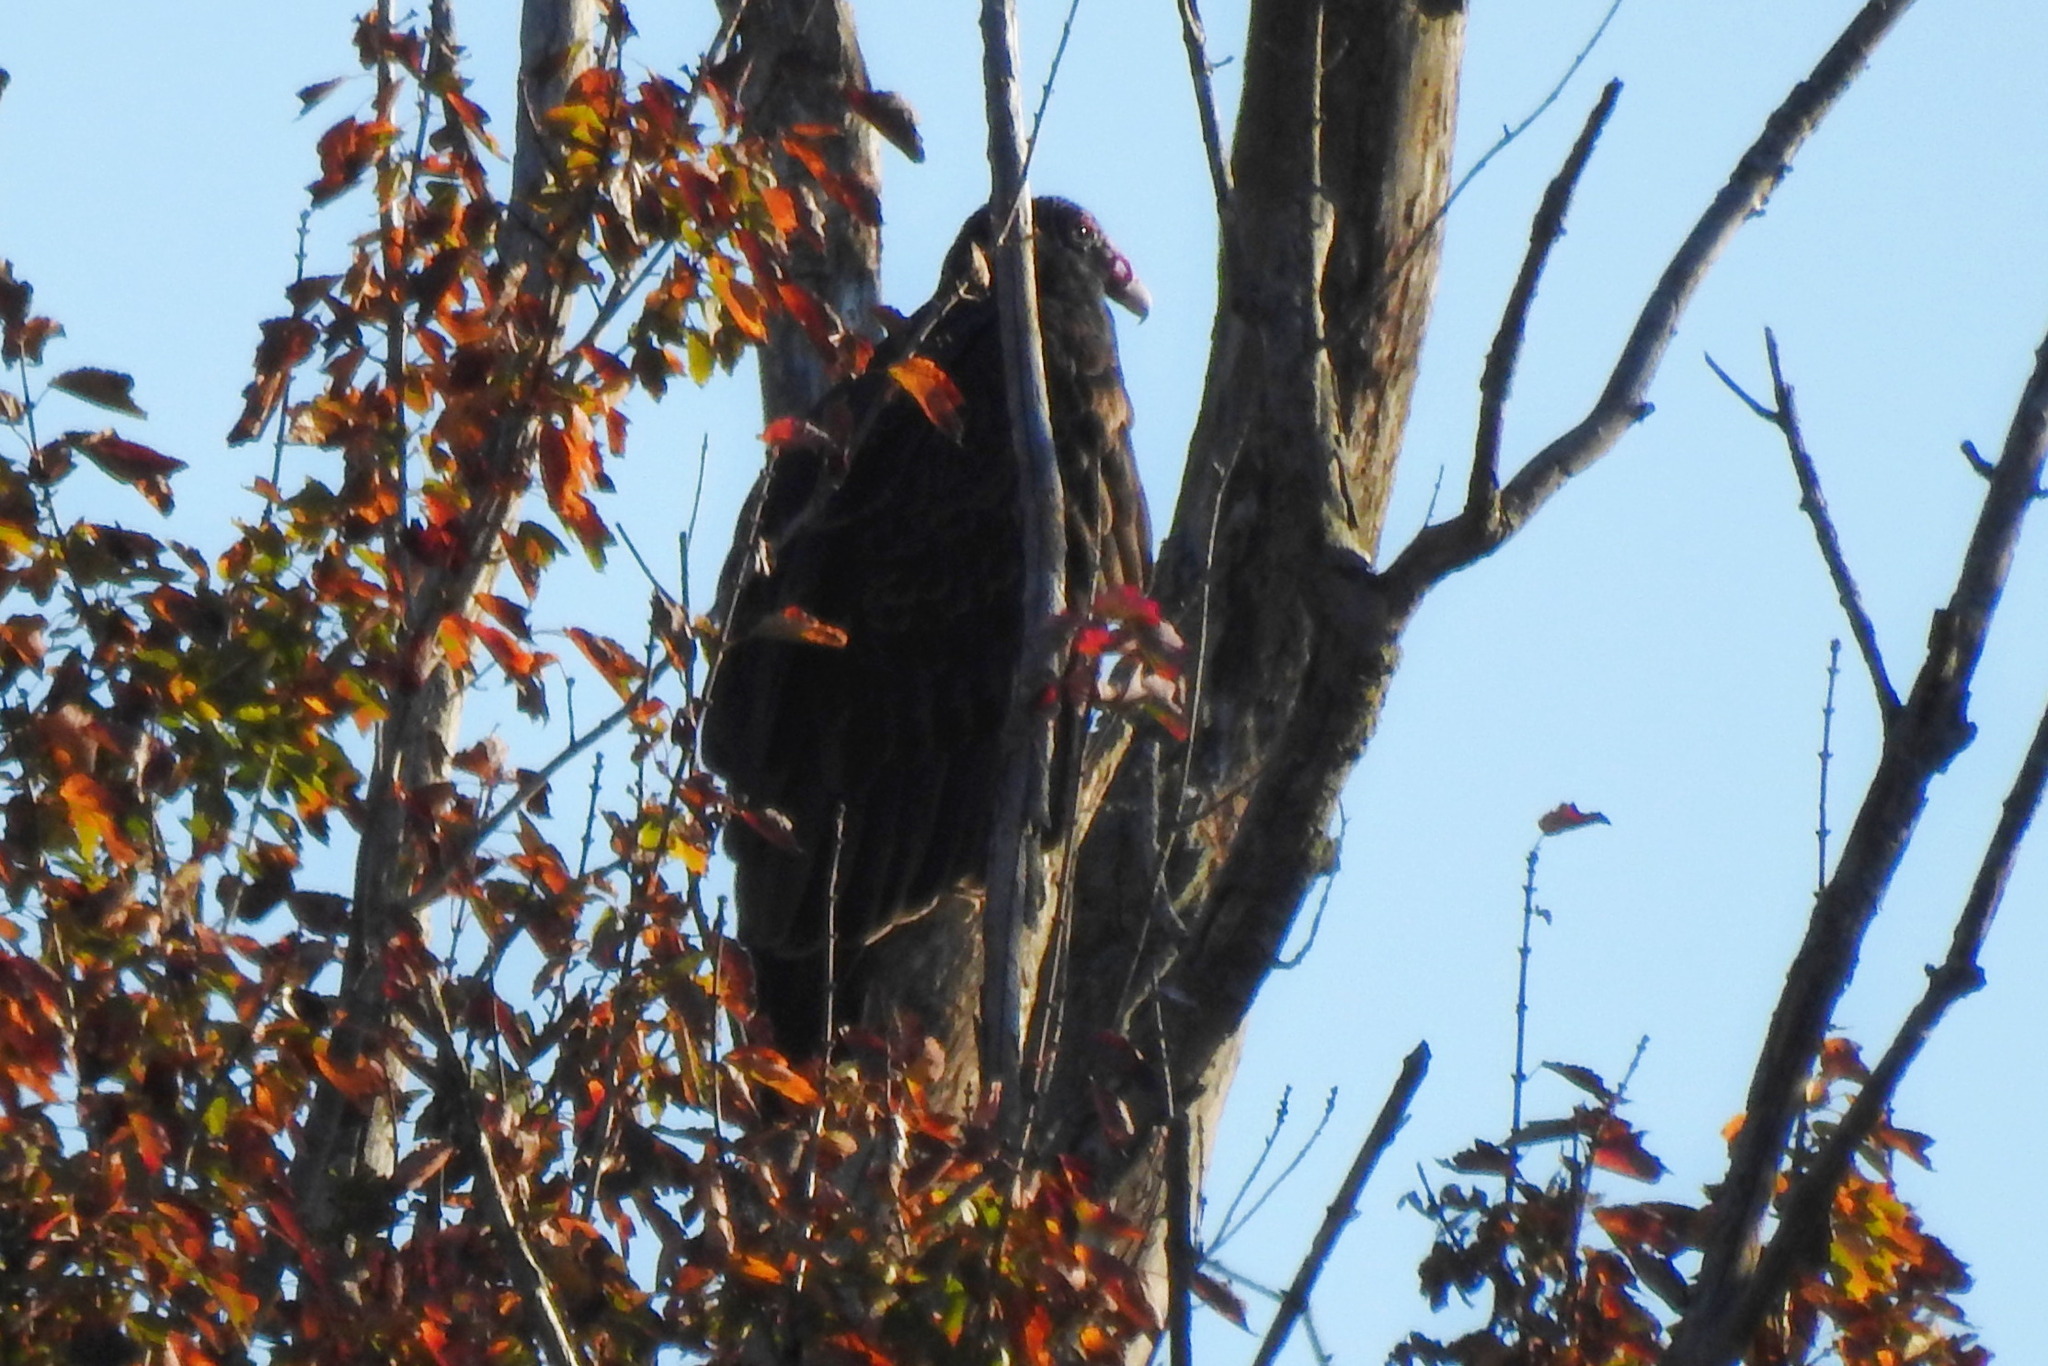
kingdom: Animalia
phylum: Chordata
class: Aves
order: Accipitriformes
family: Cathartidae
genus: Cathartes
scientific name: Cathartes aura
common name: Turkey vulture
